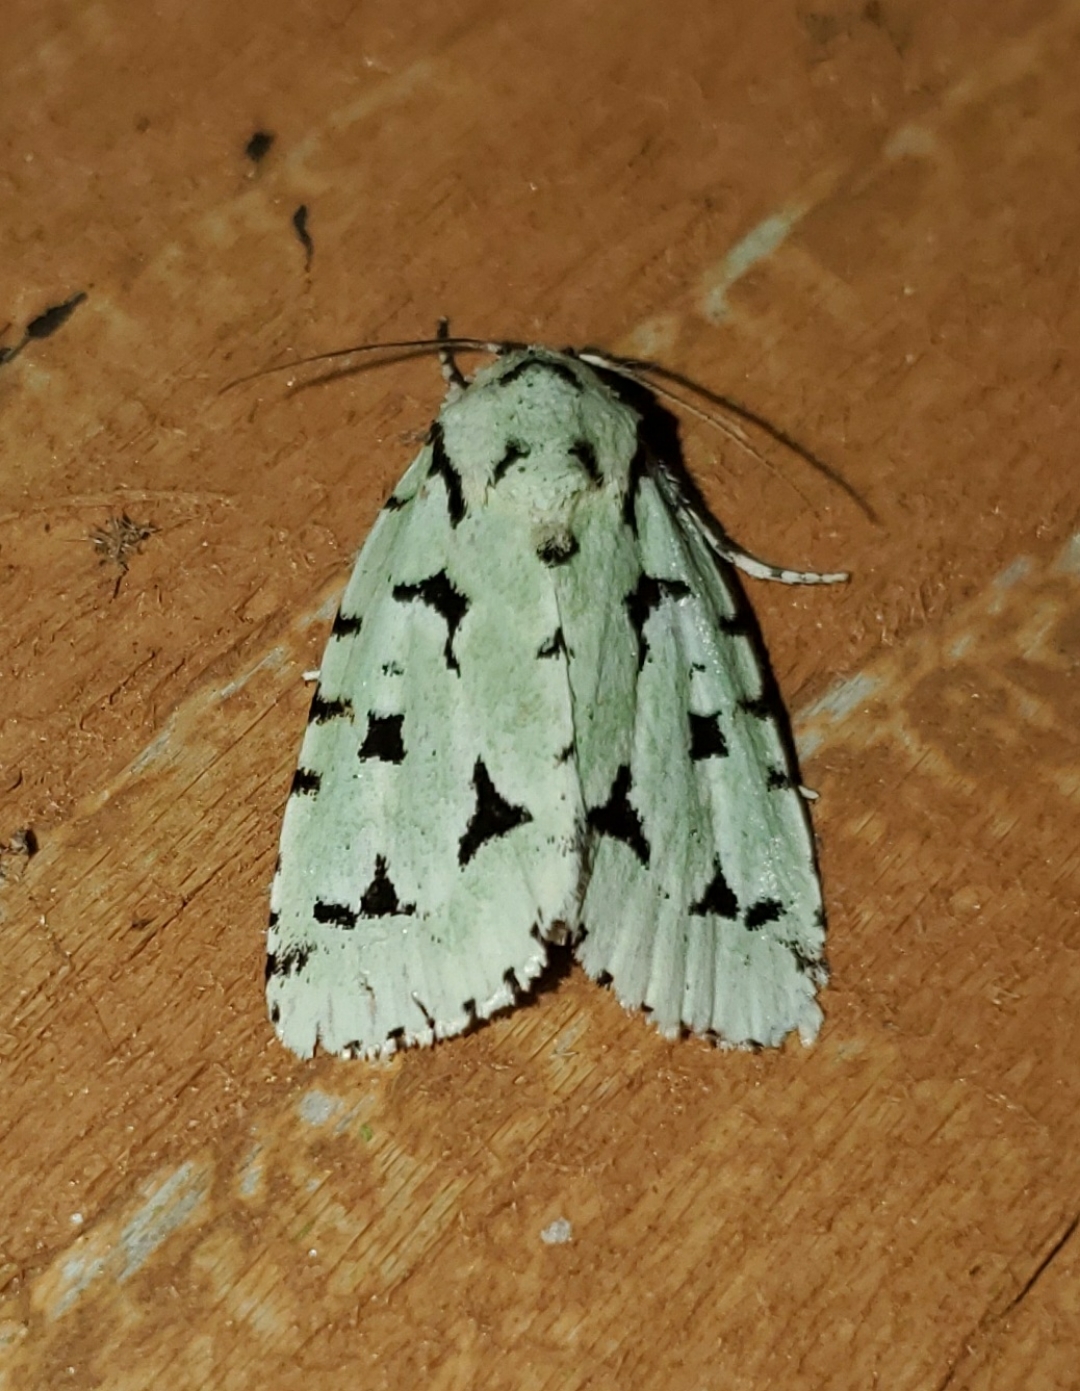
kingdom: Animalia
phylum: Arthropoda
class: Insecta
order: Lepidoptera
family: Noctuidae
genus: Acronicta
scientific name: Acronicta fallax
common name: Green marvel
